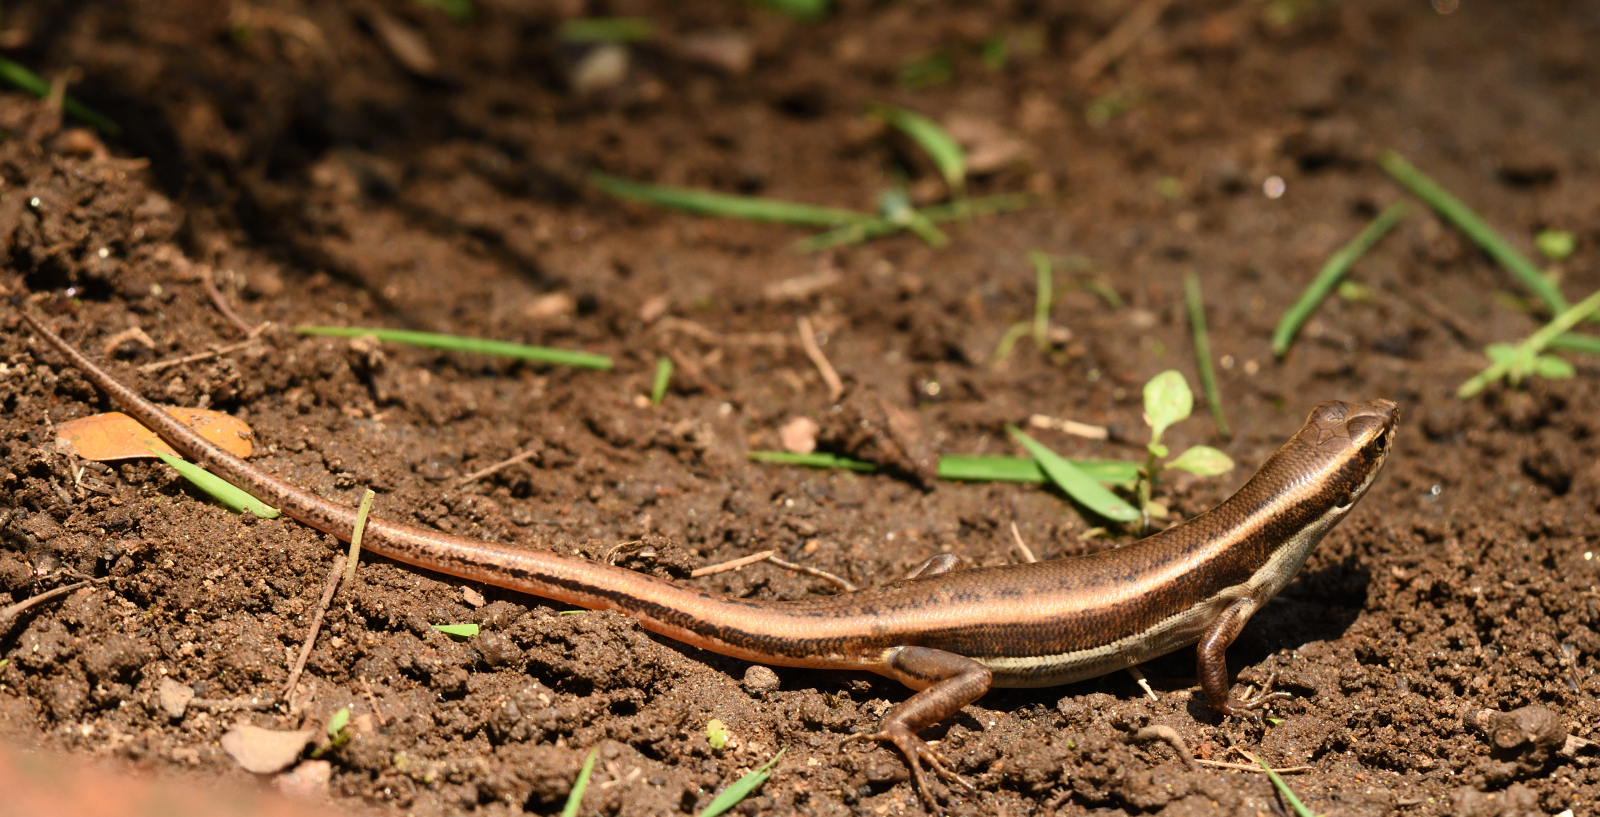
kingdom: Animalia
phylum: Chordata
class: Squamata
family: Scincidae
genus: Sphenomorphus
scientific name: Sphenomorphus dussumieri
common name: Dussumier's forest skink
